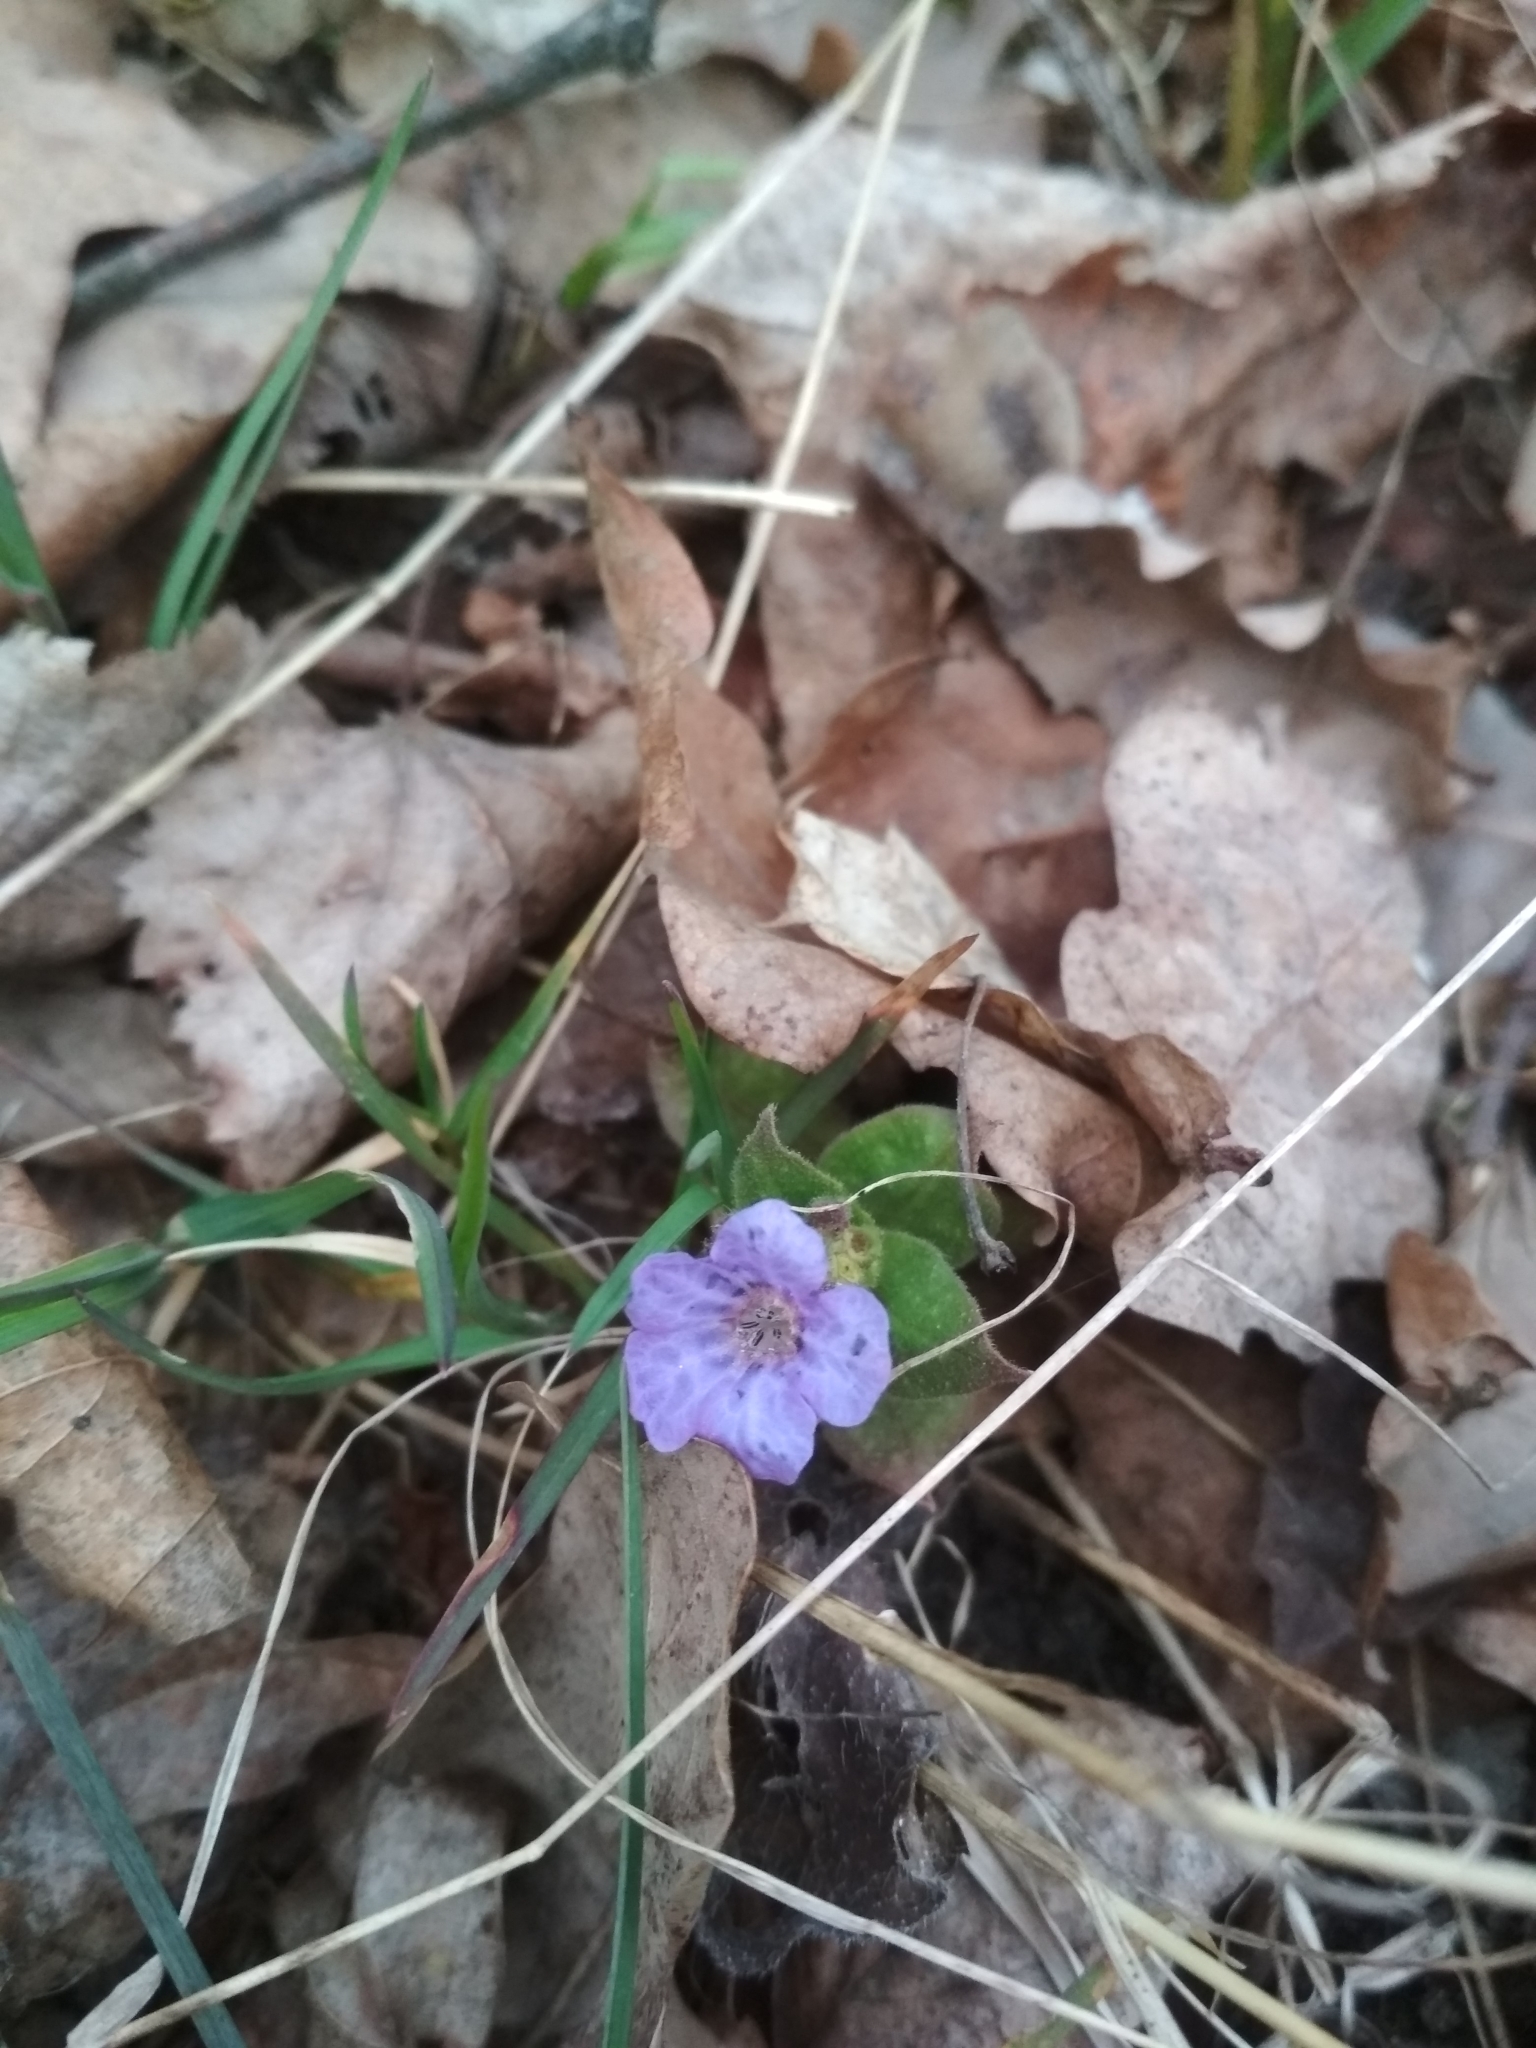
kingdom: Plantae
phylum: Tracheophyta
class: Magnoliopsida
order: Boraginales
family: Boraginaceae
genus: Pulmonaria
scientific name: Pulmonaria obscura
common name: Suffolk lungwort
